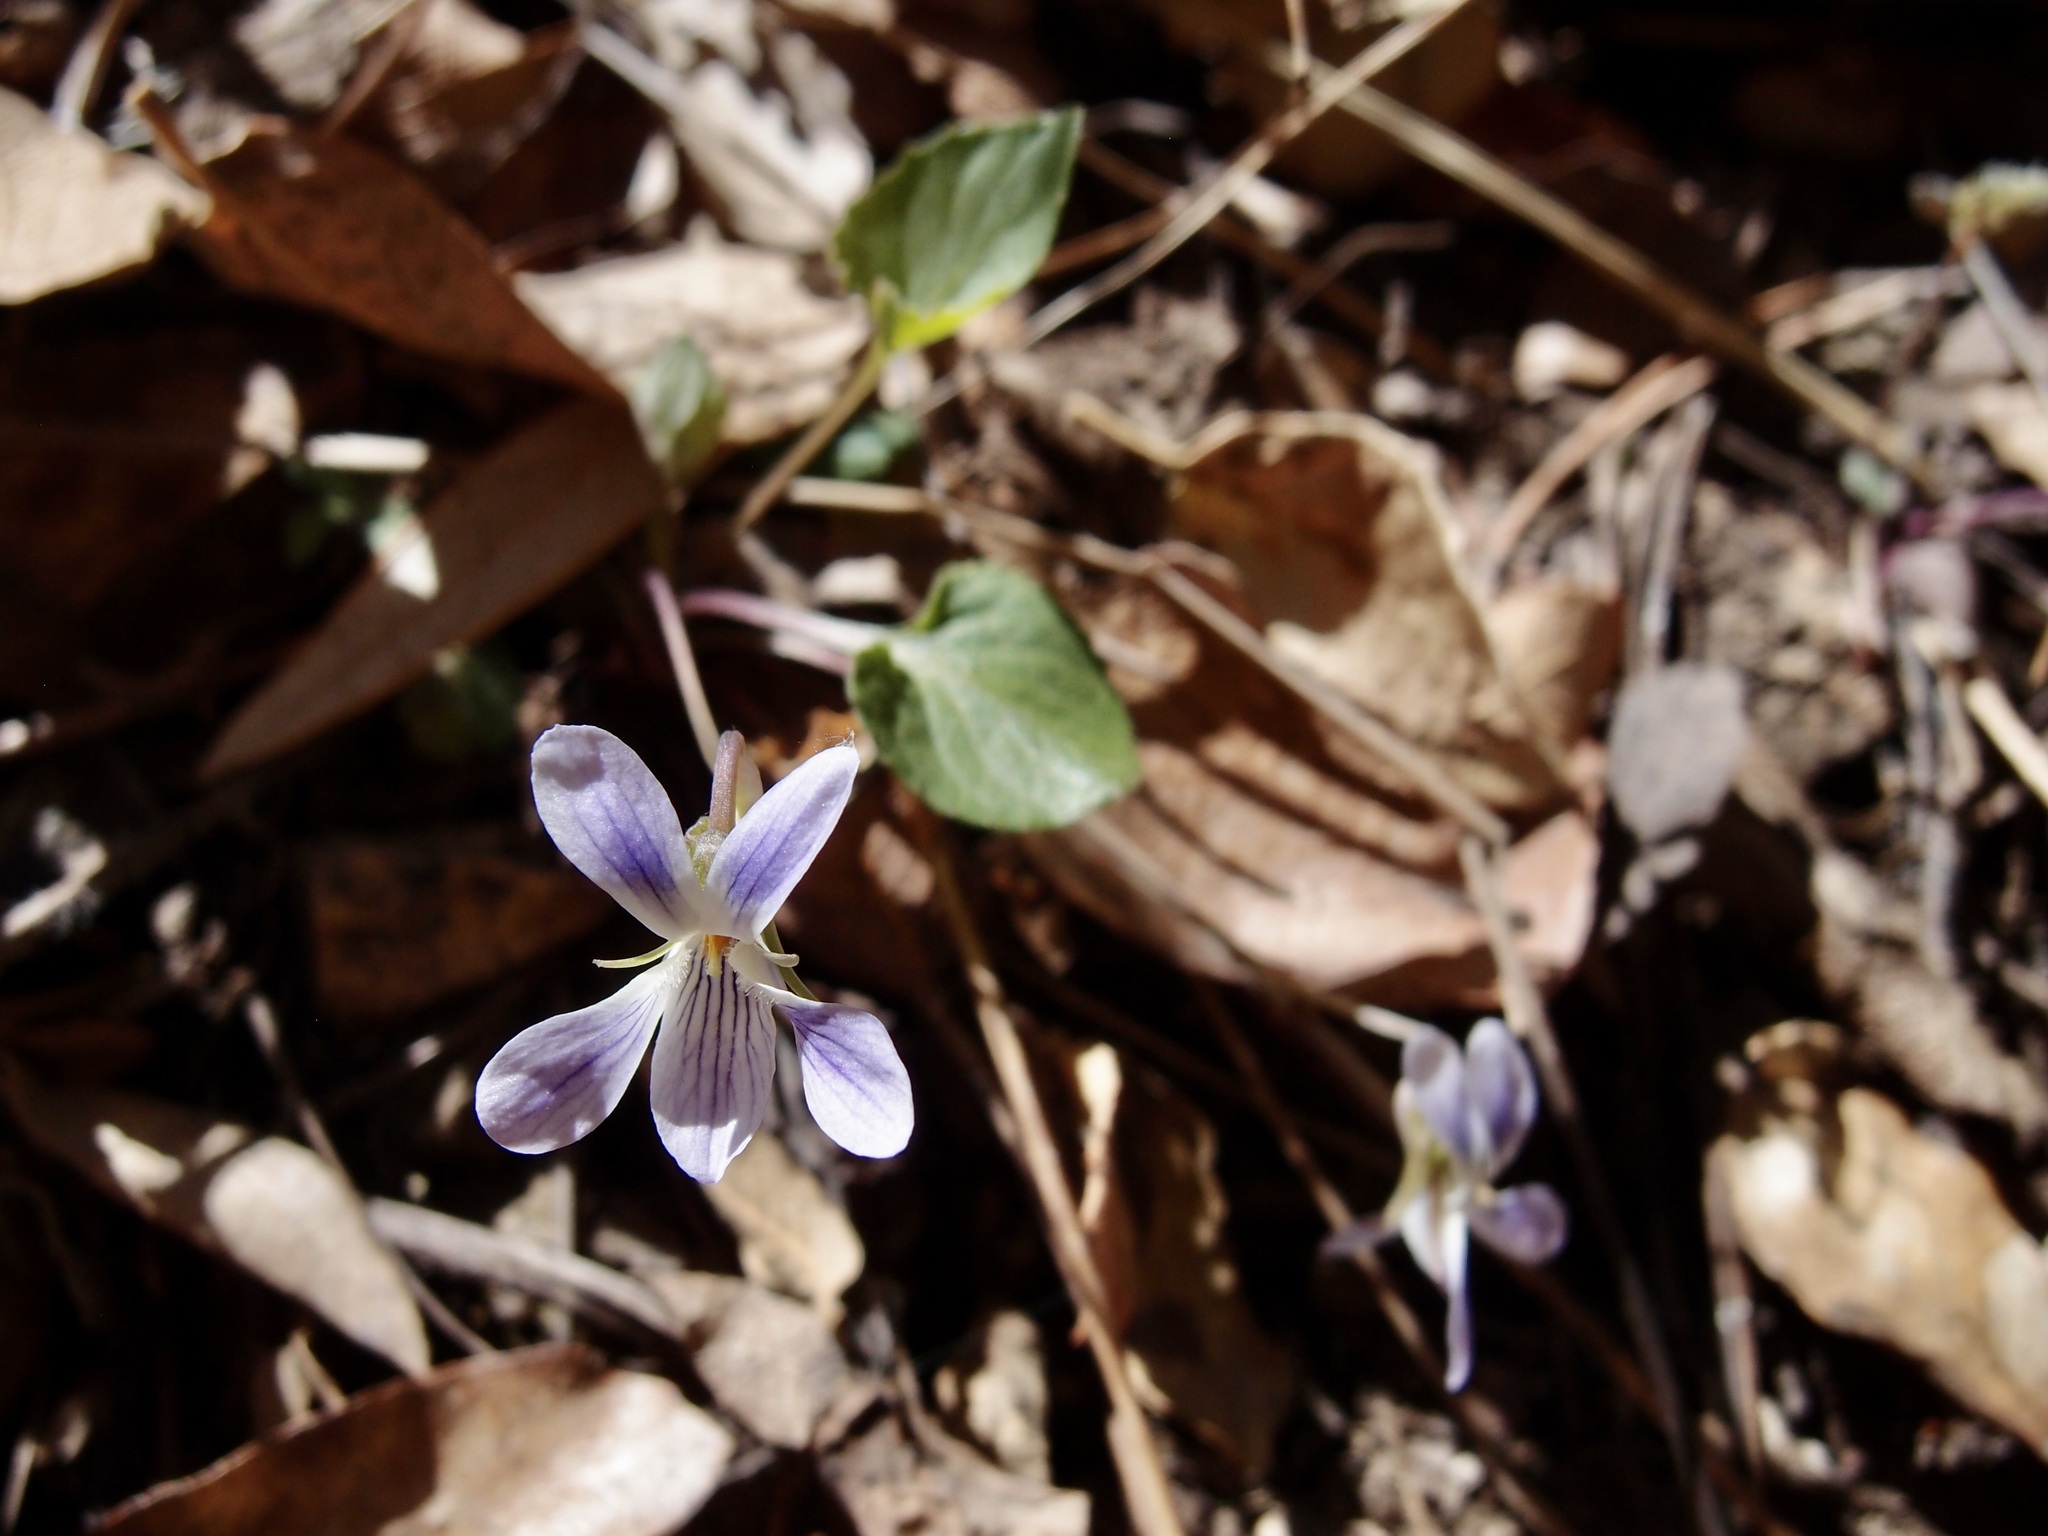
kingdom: Plantae
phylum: Tracheophyta
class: Magnoliopsida
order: Malpighiales
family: Violaceae
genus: Viola
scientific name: Viola umbraticola
